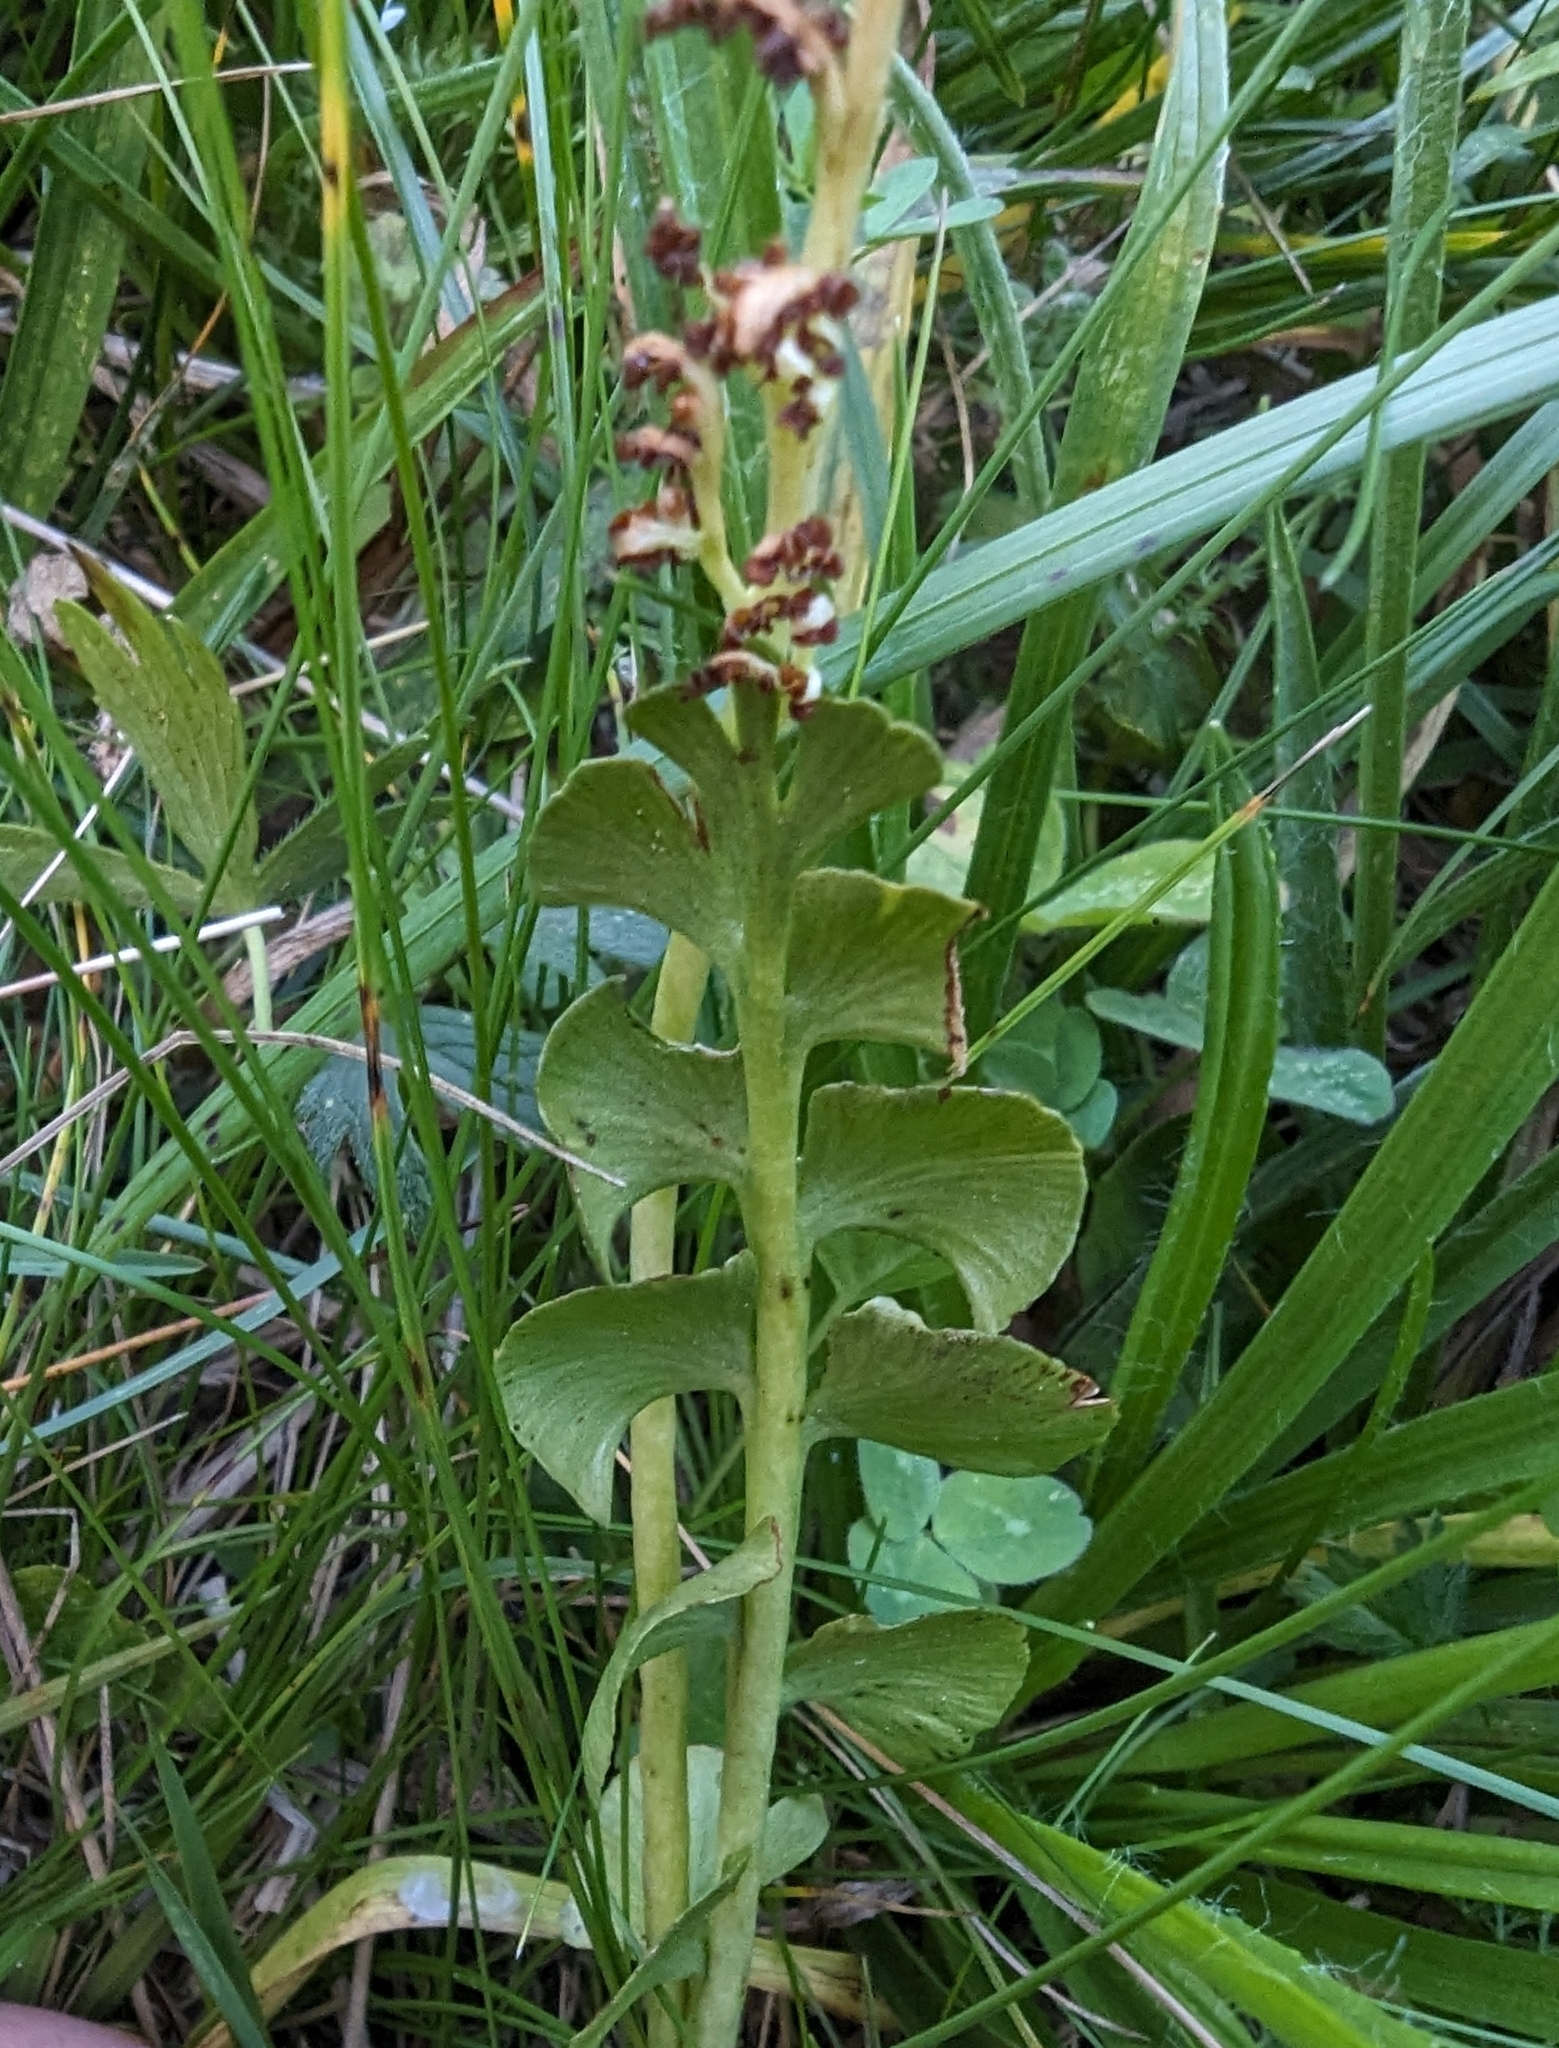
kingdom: Plantae
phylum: Tracheophyta
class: Polypodiopsida
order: Ophioglossales
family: Ophioglossaceae
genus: Botrychium
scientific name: Botrychium lunaria
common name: Moonwort
